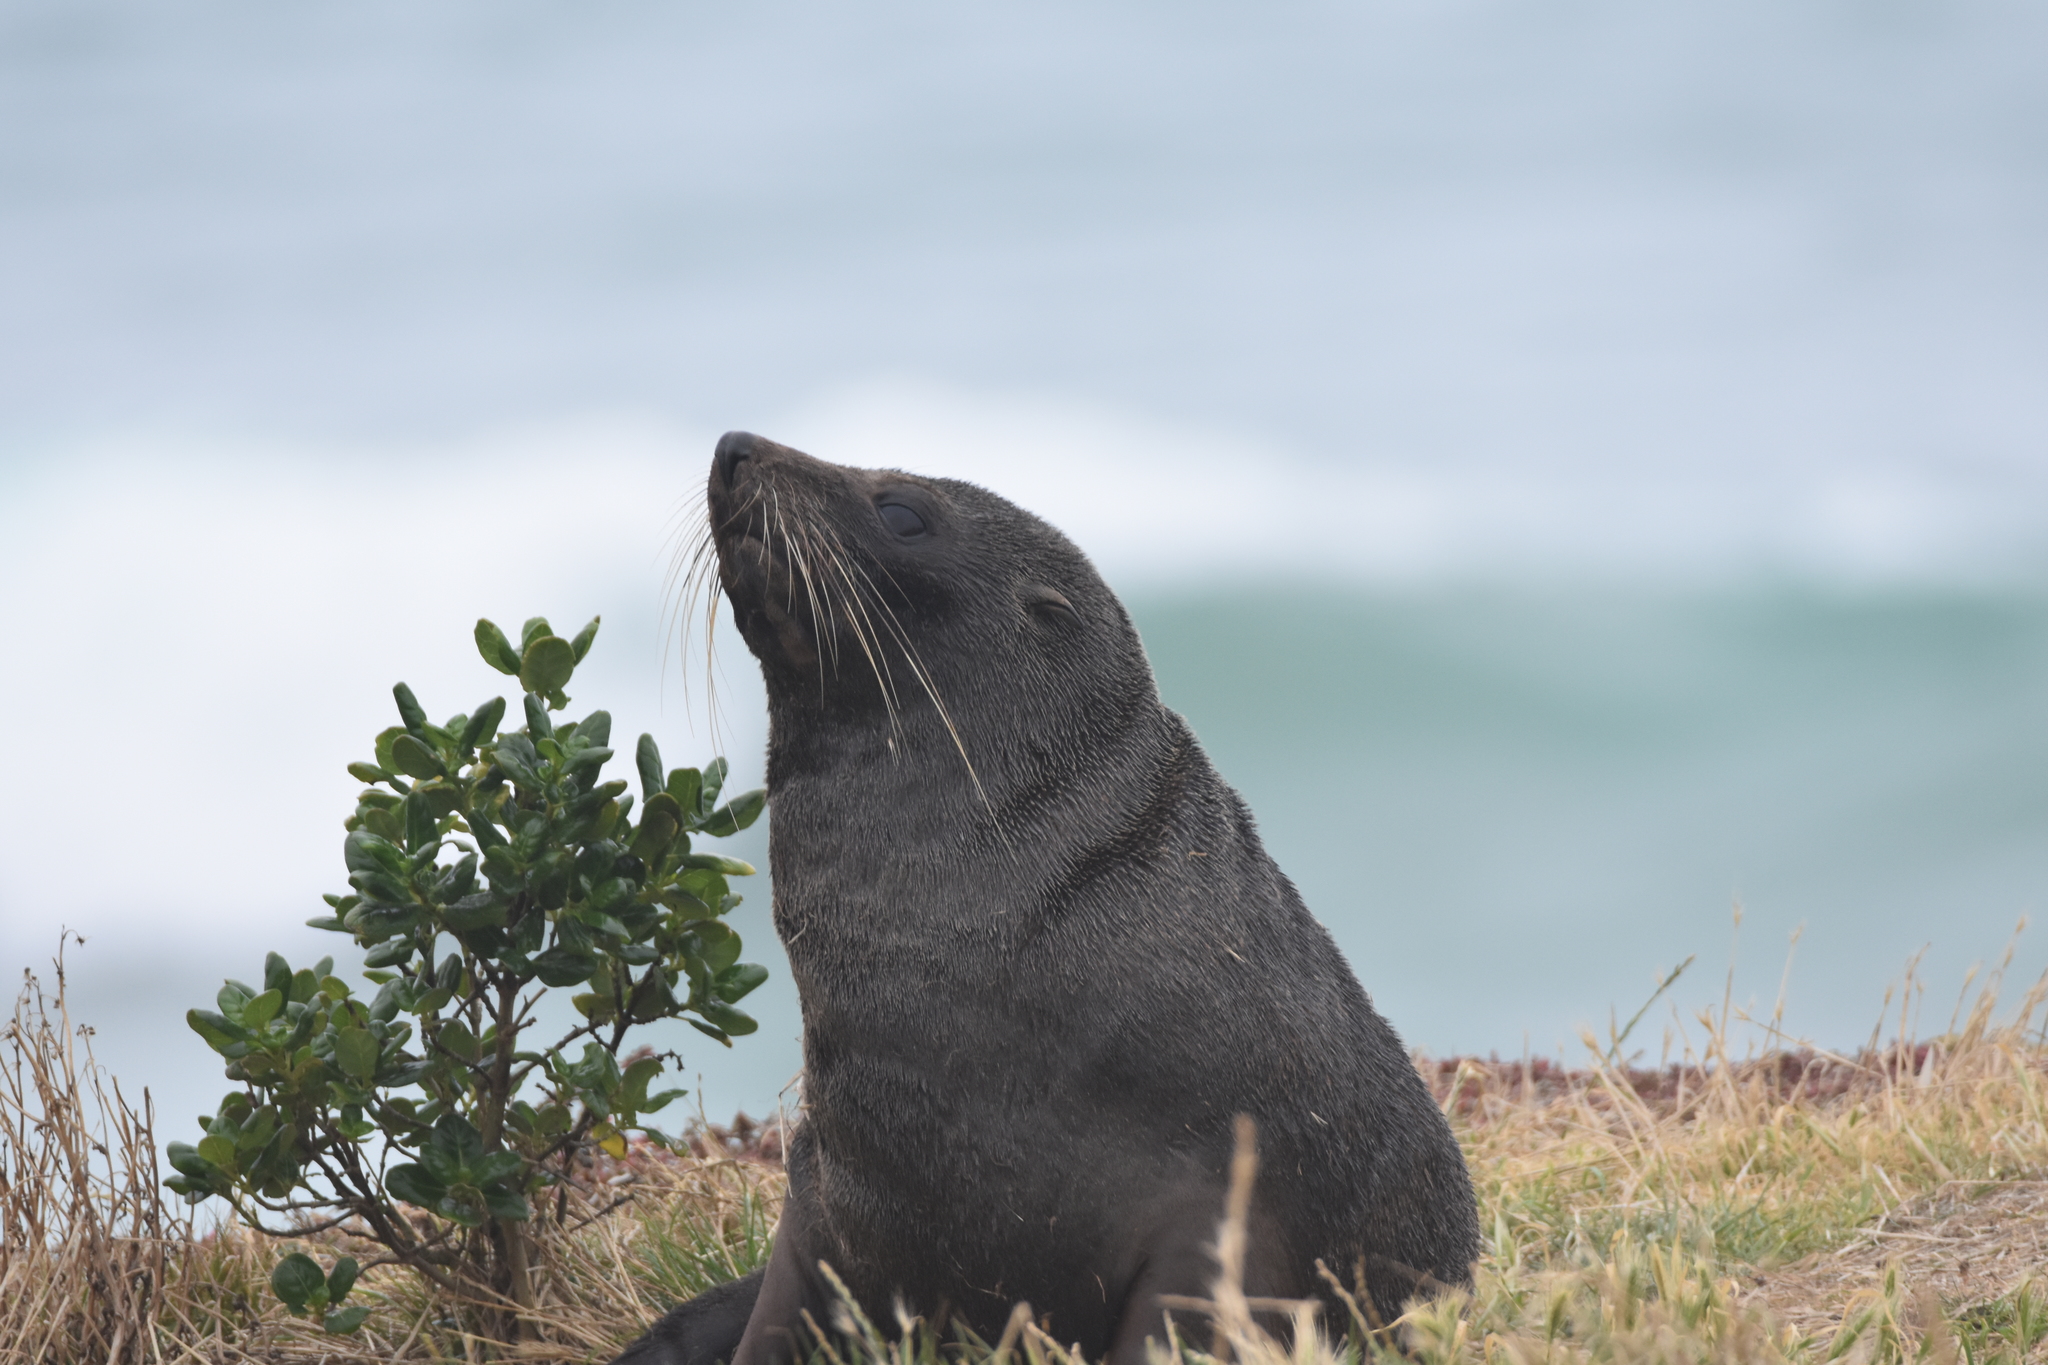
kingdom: Animalia
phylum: Chordata
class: Mammalia
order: Carnivora
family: Otariidae
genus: Arctocephalus
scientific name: Arctocephalus forsteri
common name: New zealand fur seal
